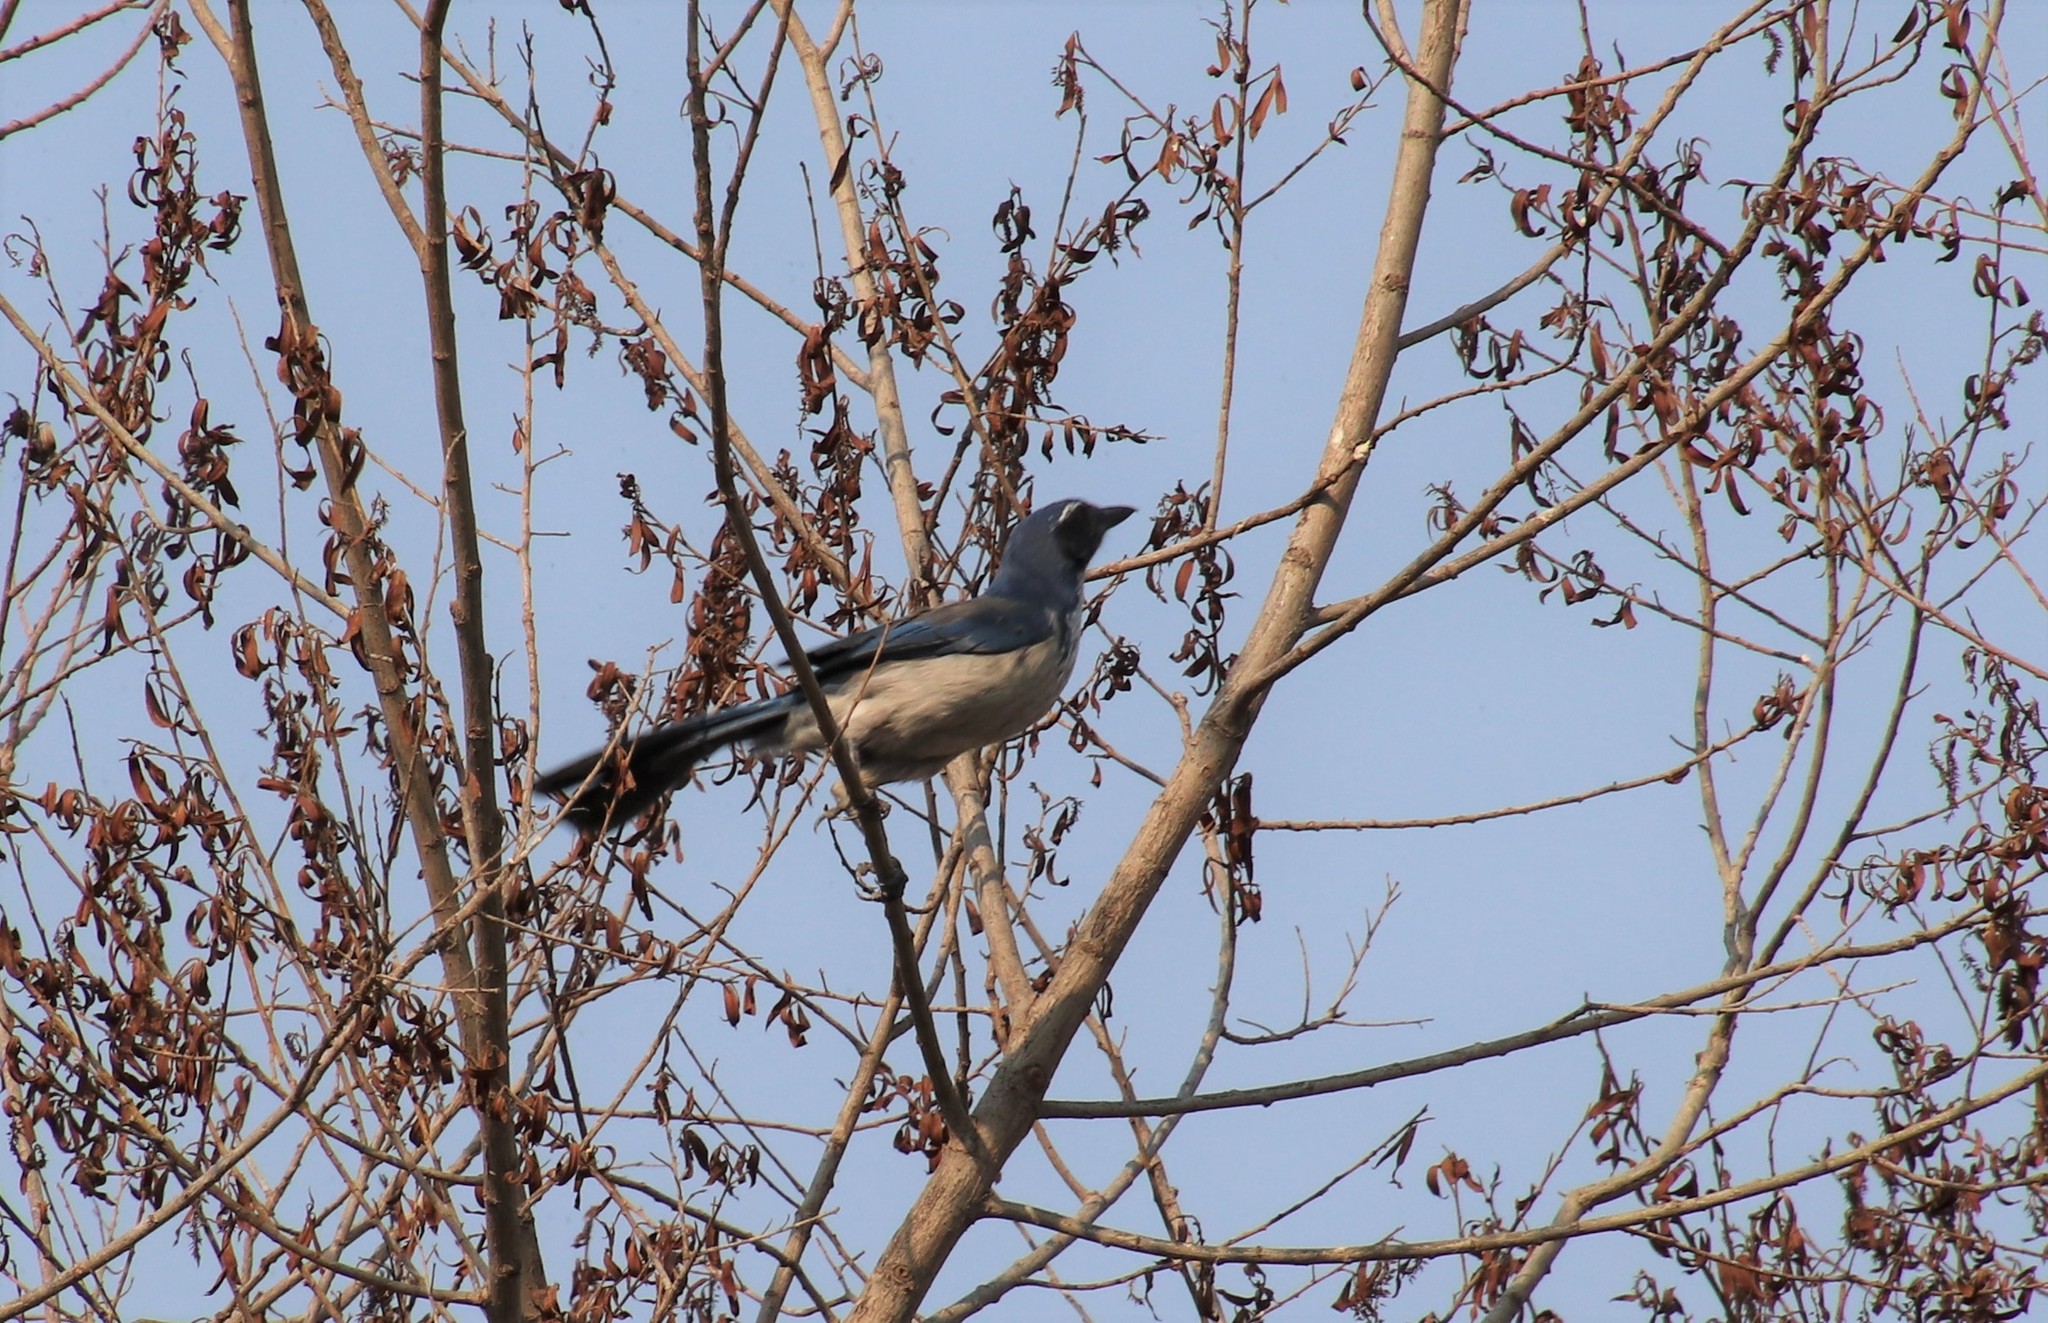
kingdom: Animalia
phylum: Chordata
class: Aves
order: Passeriformes
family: Corvidae
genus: Aphelocoma
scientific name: Aphelocoma californica
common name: California scrub-jay
